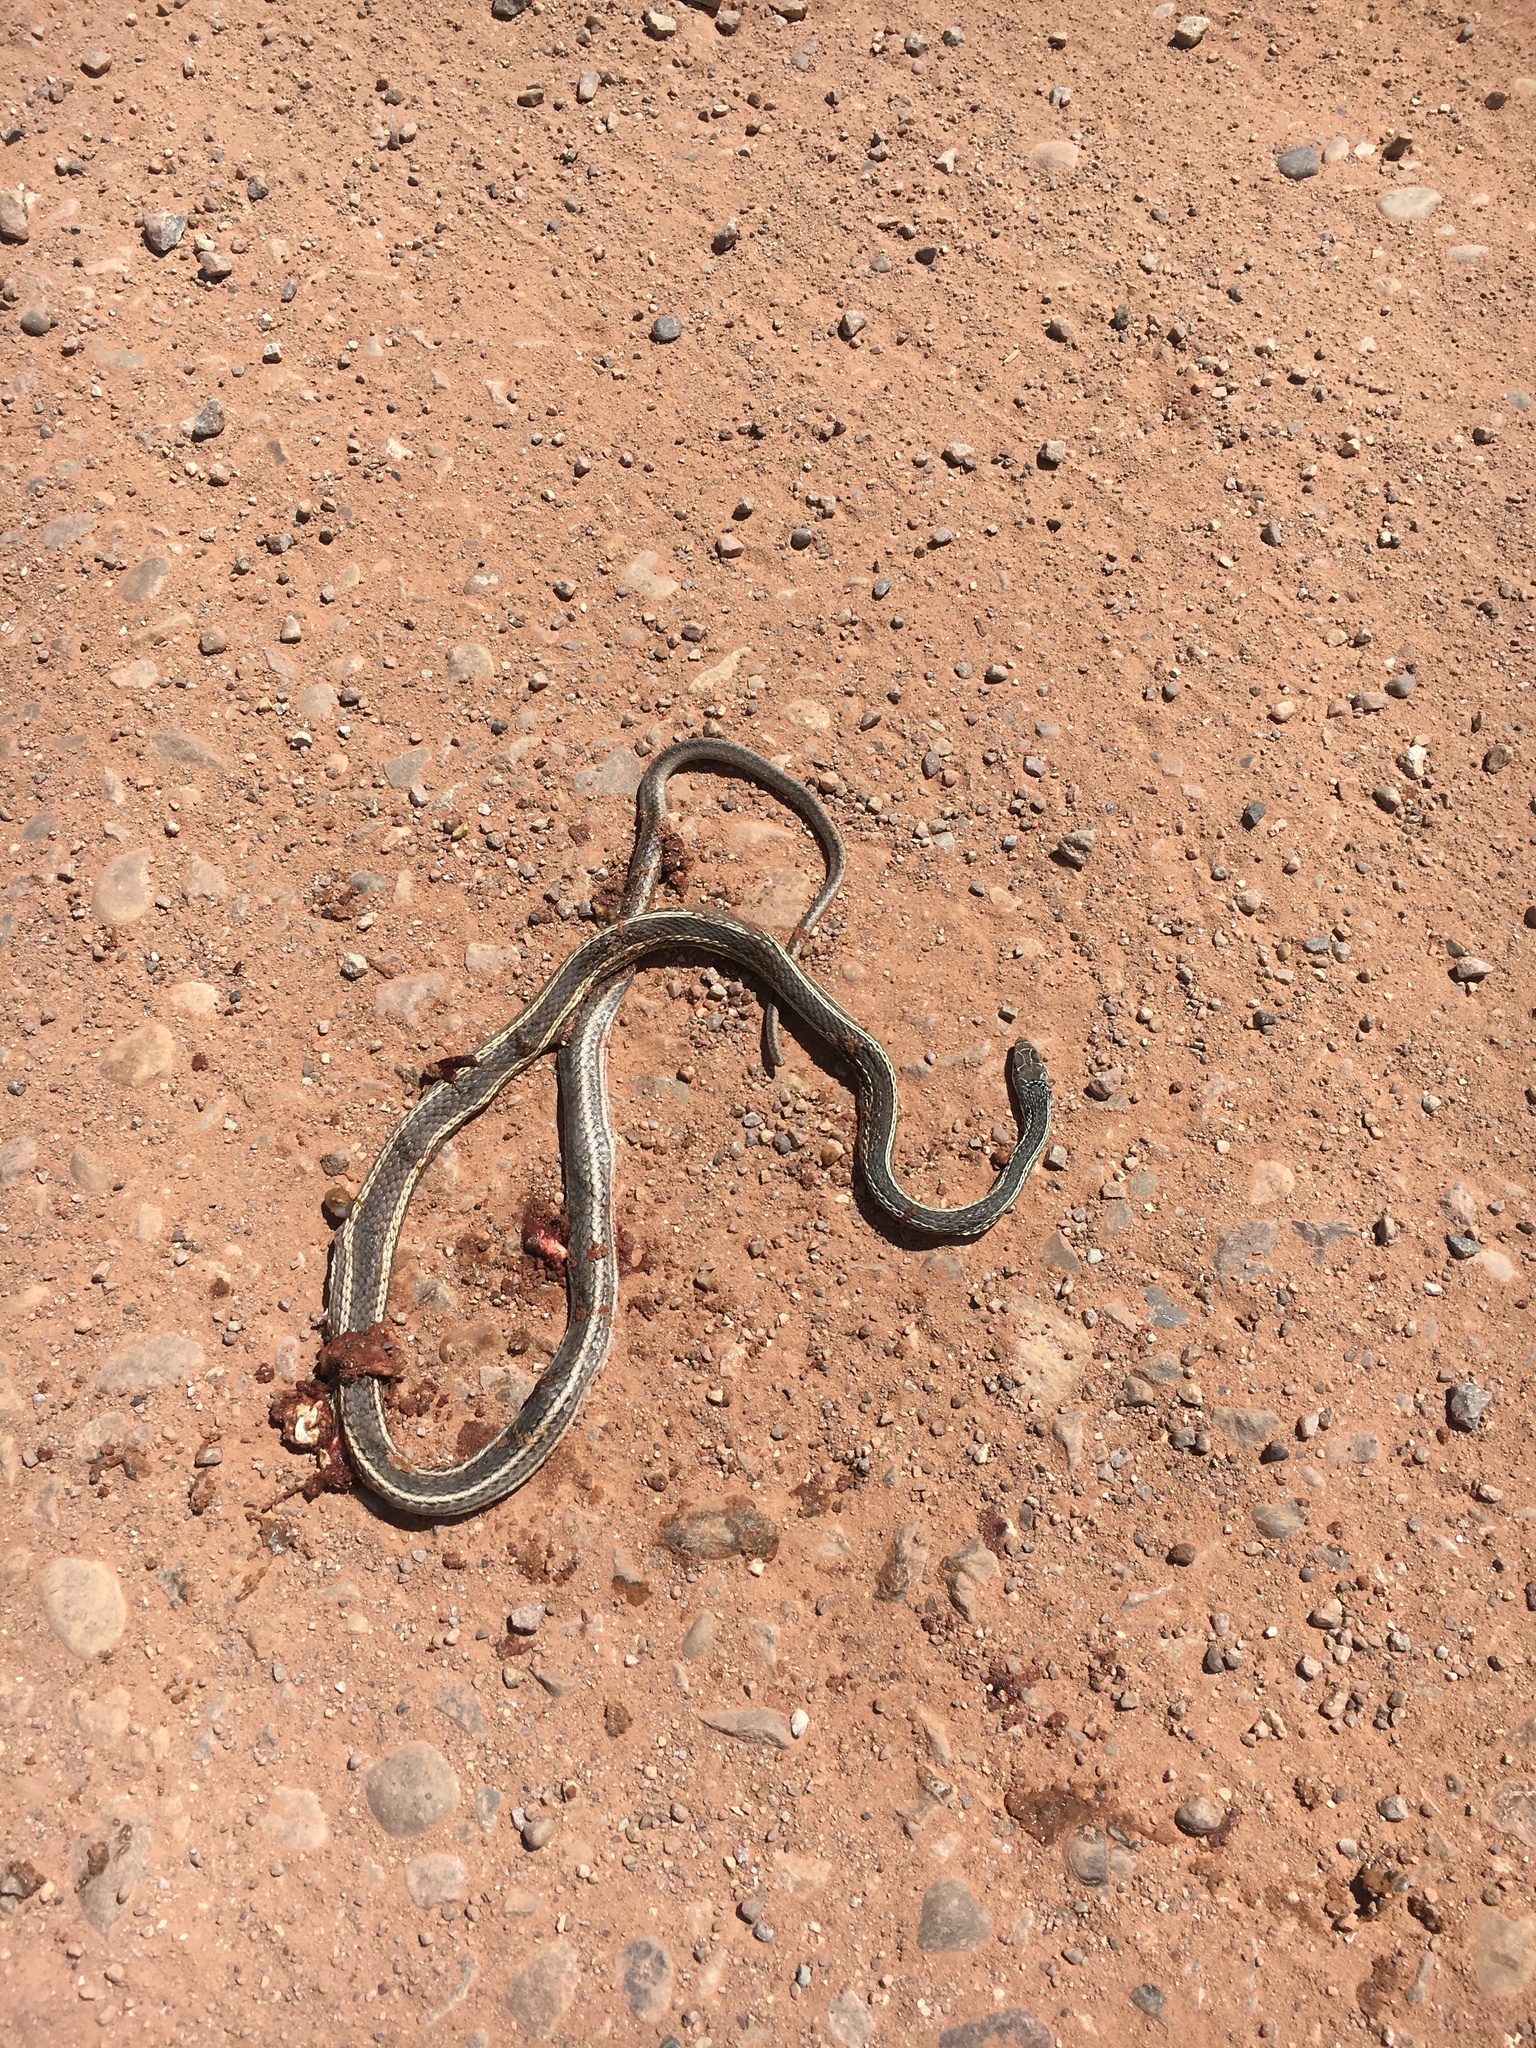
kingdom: Animalia
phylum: Chordata
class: Squamata
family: Colubridae
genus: Masticophis
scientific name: Masticophis taeniatus
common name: Striped whipsnake
